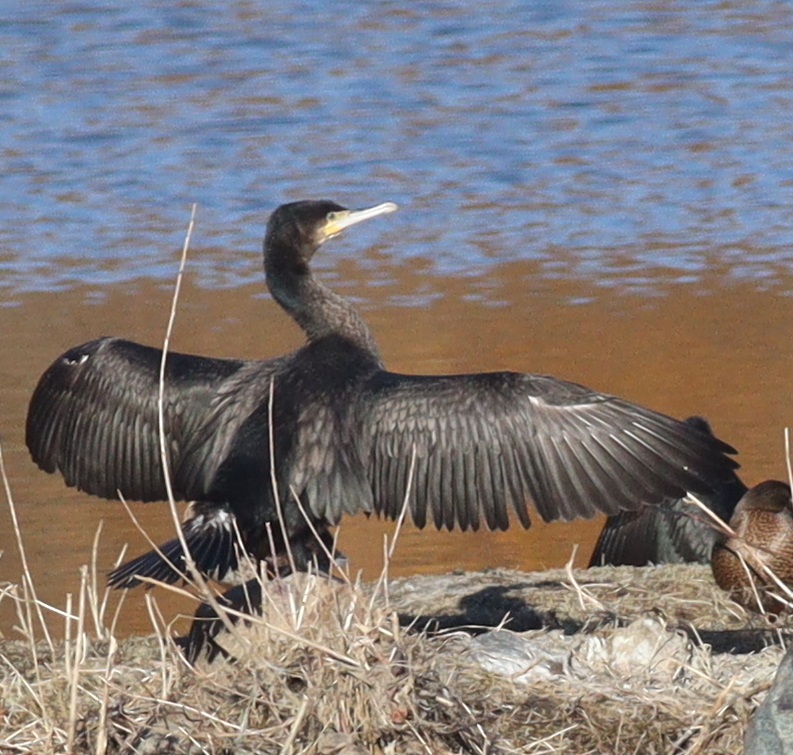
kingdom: Animalia
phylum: Chordata
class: Aves
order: Suliformes
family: Phalacrocoracidae
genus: Phalacrocorax
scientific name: Phalacrocorax carbo
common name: Great cormorant
